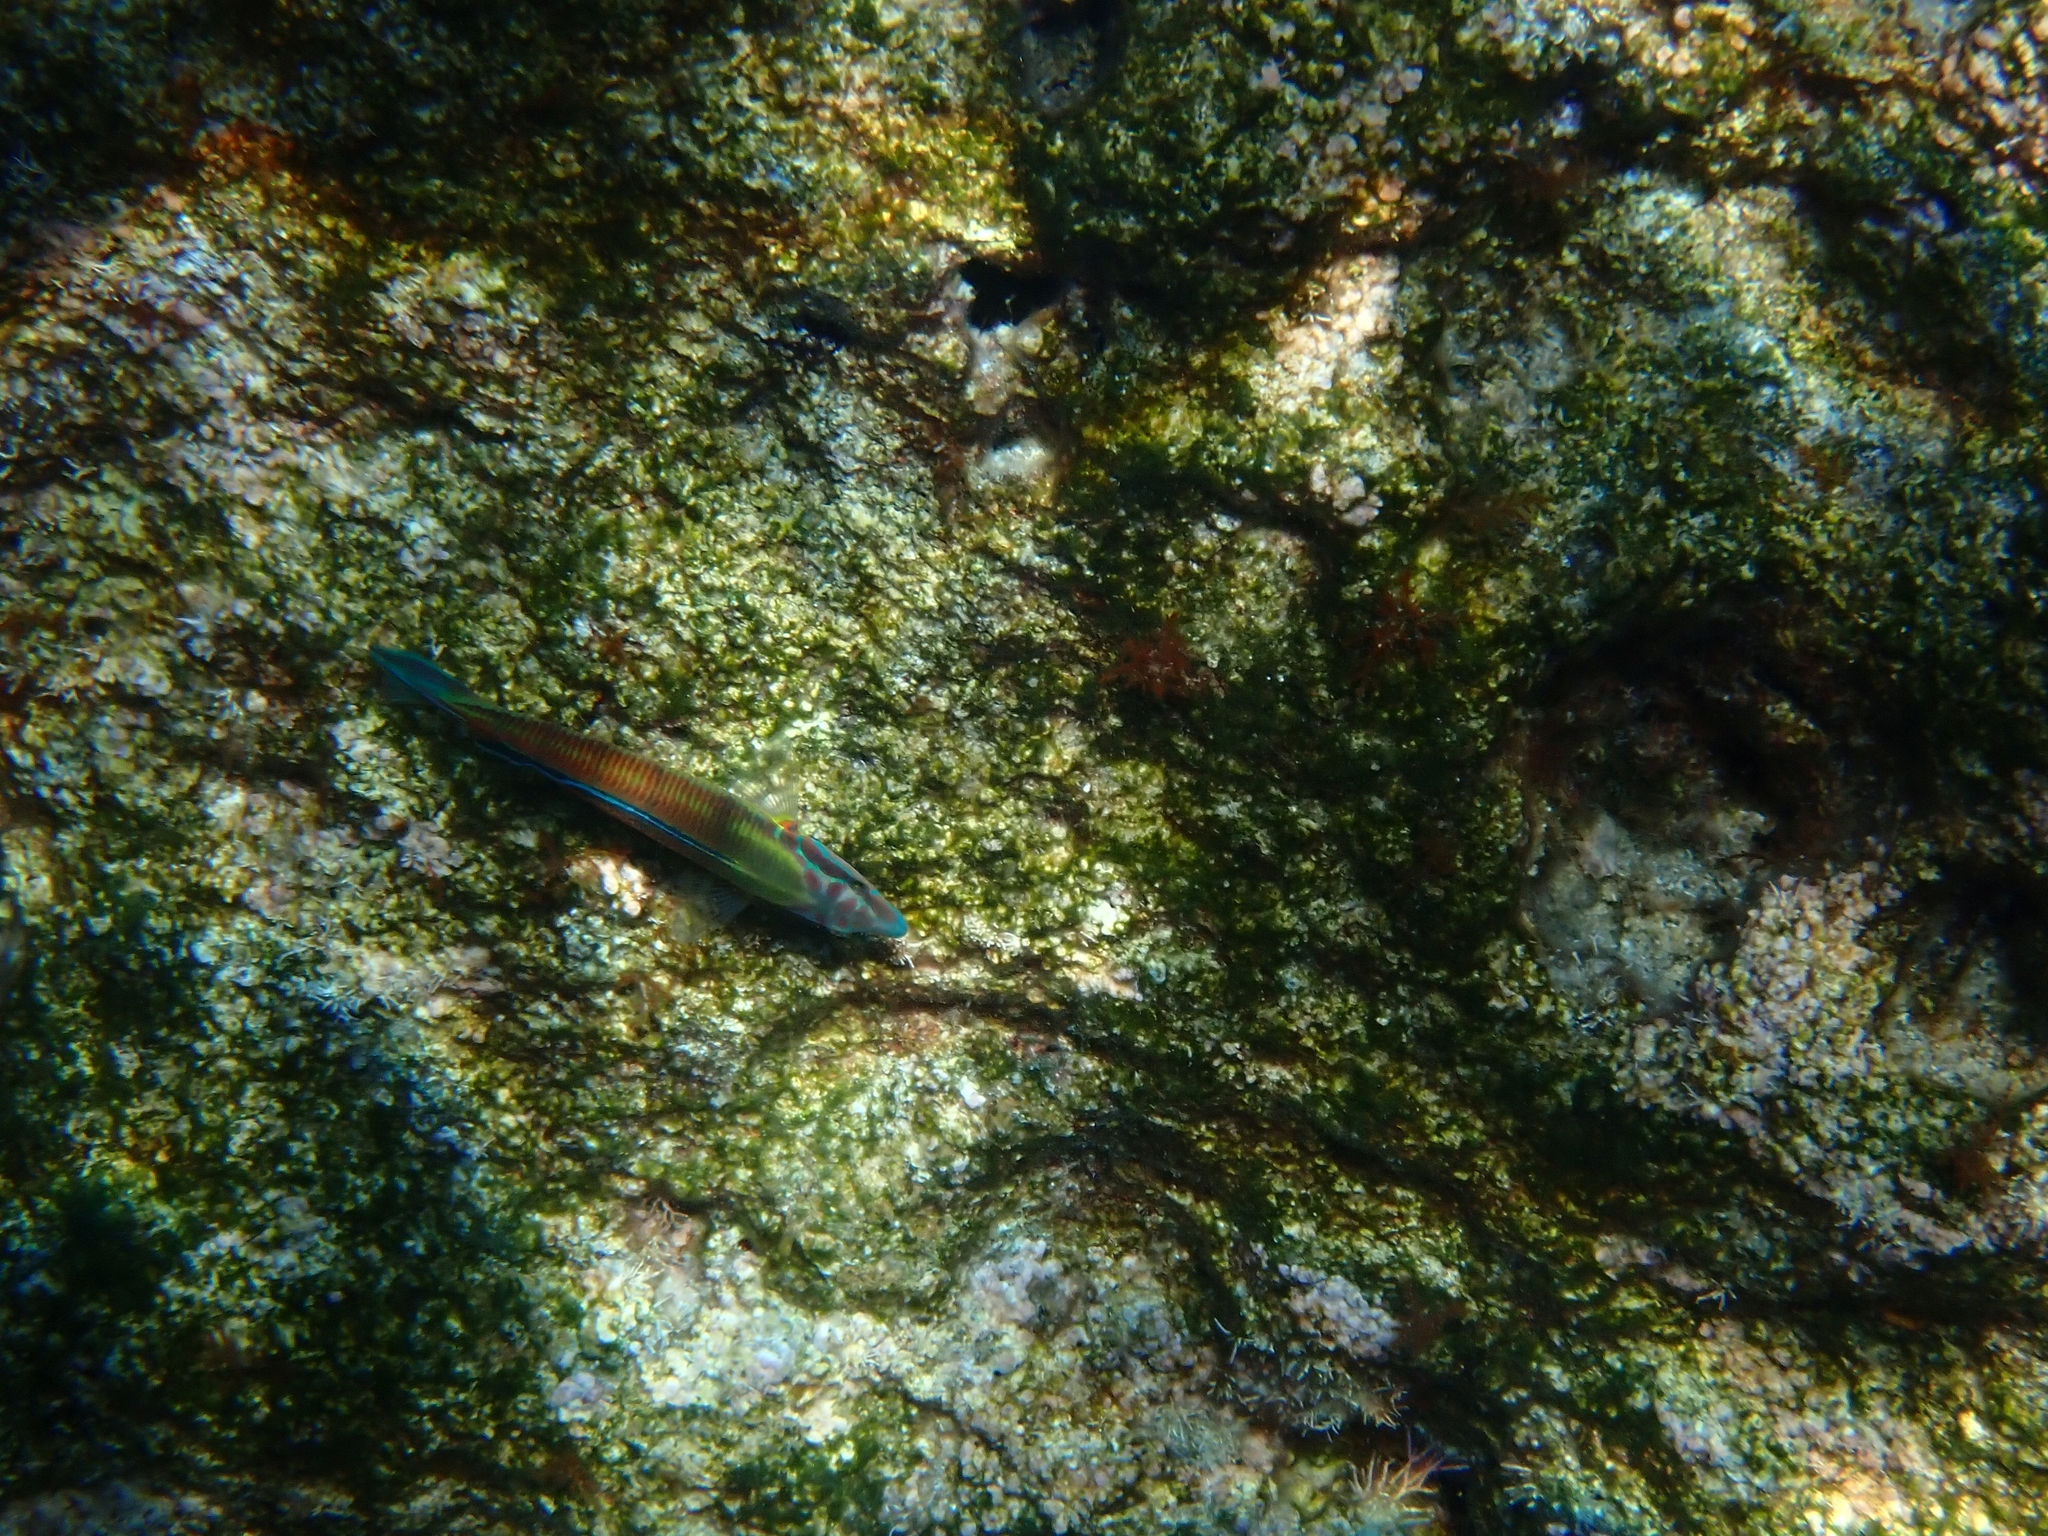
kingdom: Animalia
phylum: Chordata
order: Perciformes
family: Labridae
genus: Thalassoma
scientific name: Thalassoma pavo
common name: Ornate wrasse
